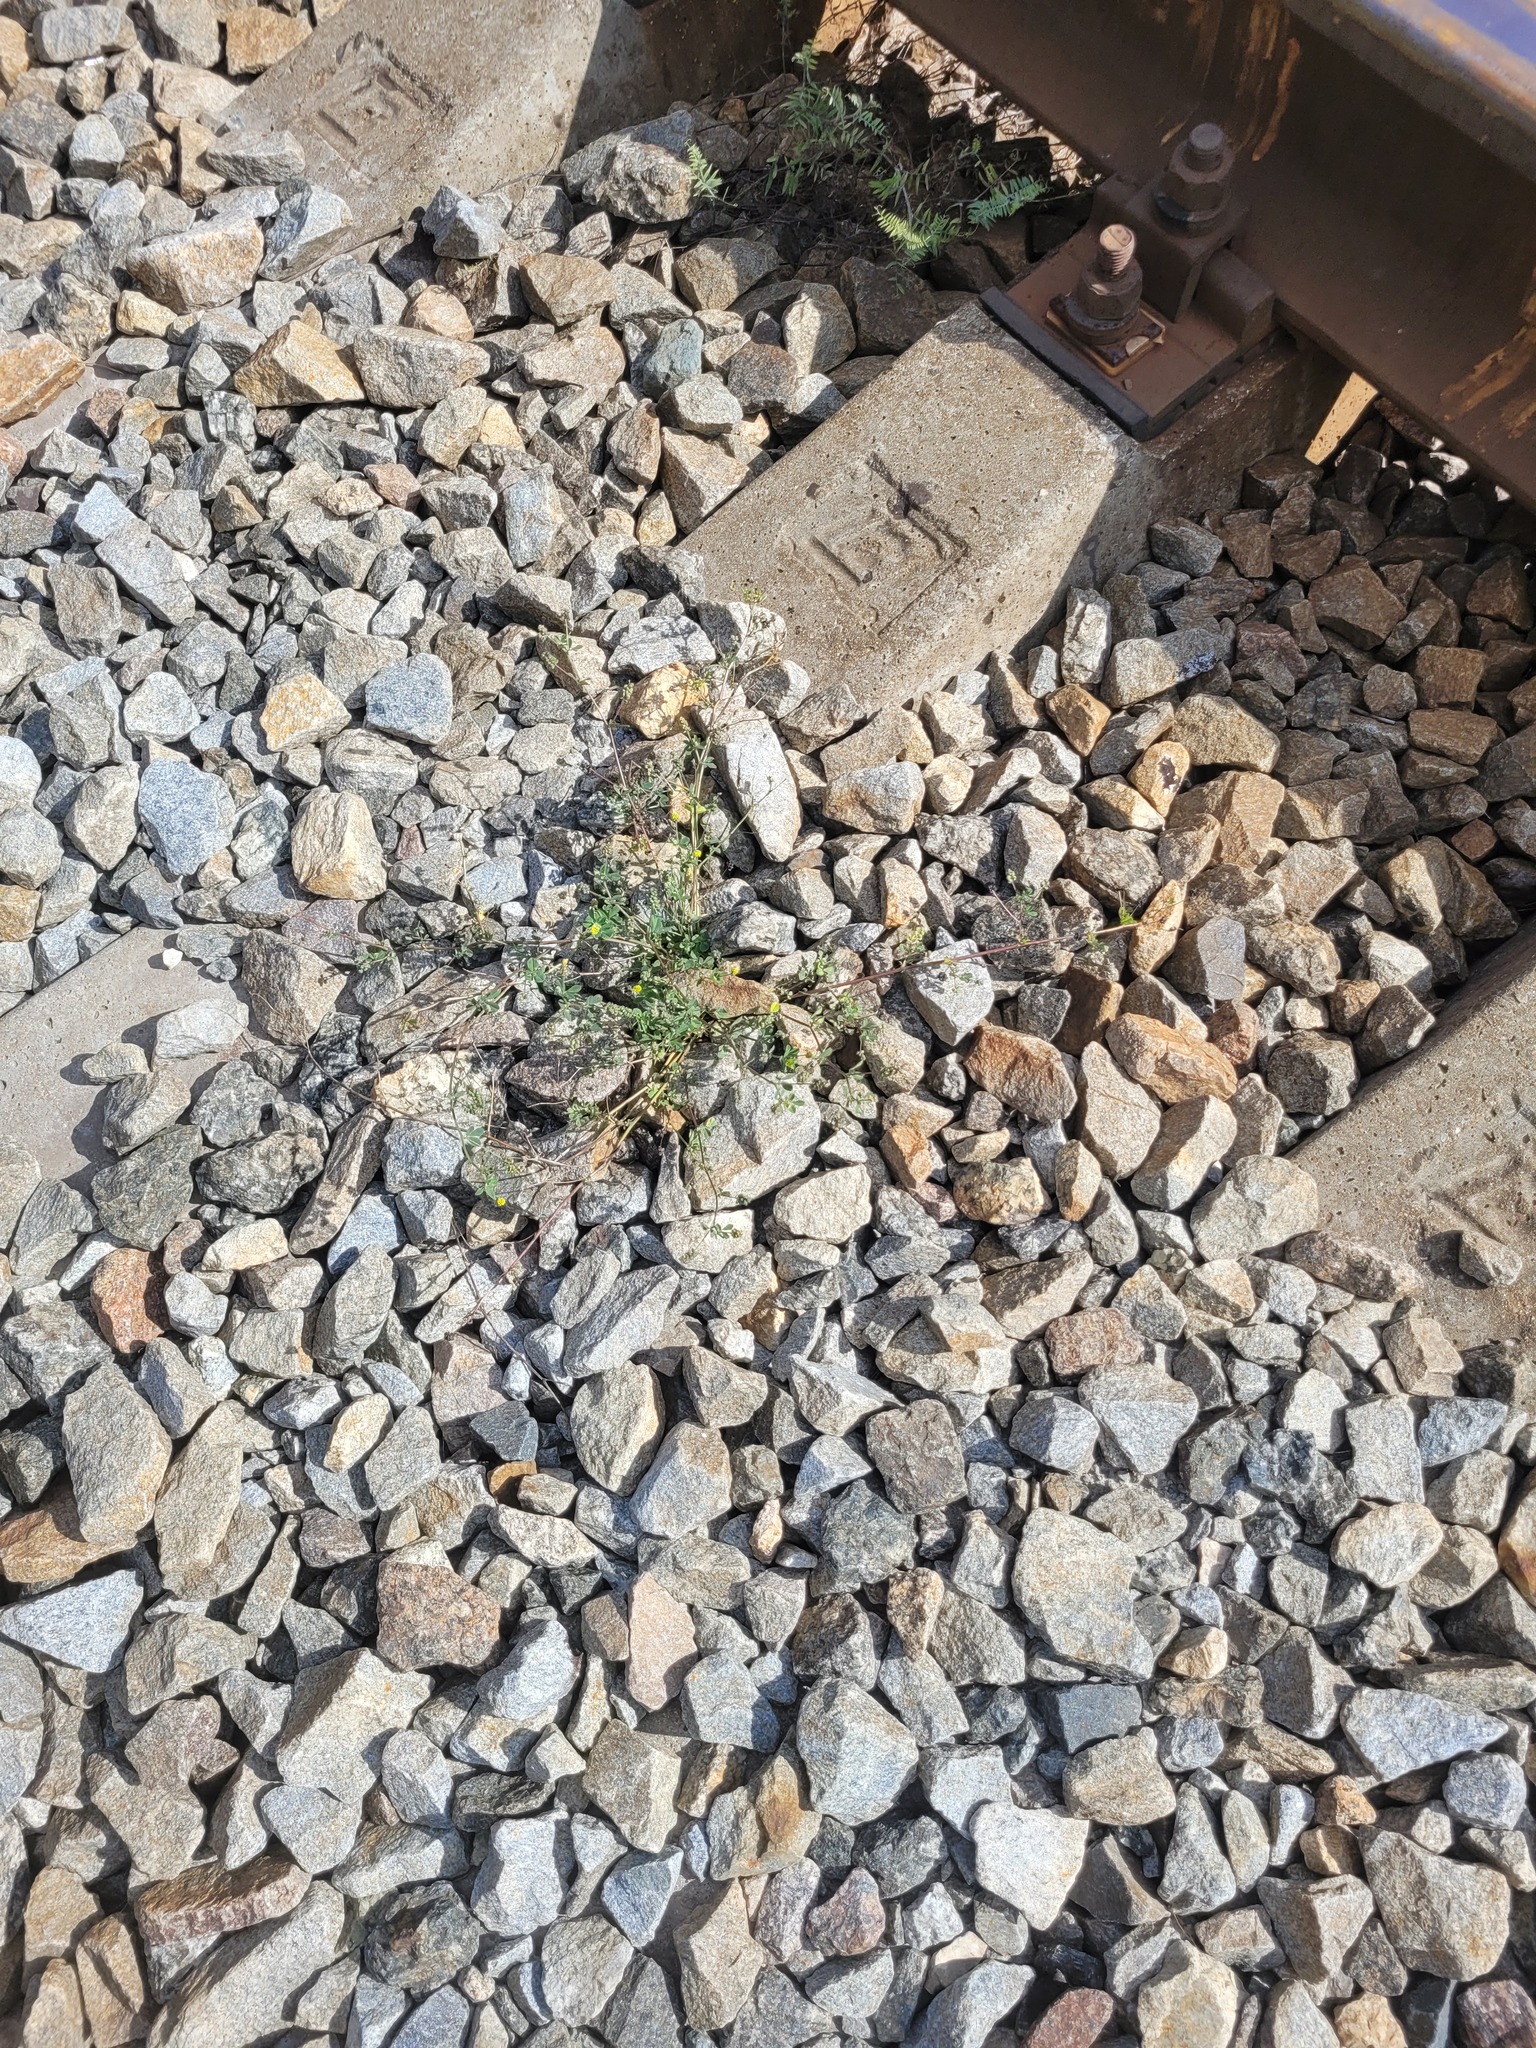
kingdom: Plantae
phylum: Tracheophyta
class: Magnoliopsida
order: Fabales
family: Fabaceae
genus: Medicago
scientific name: Medicago lupulina
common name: Black medick
